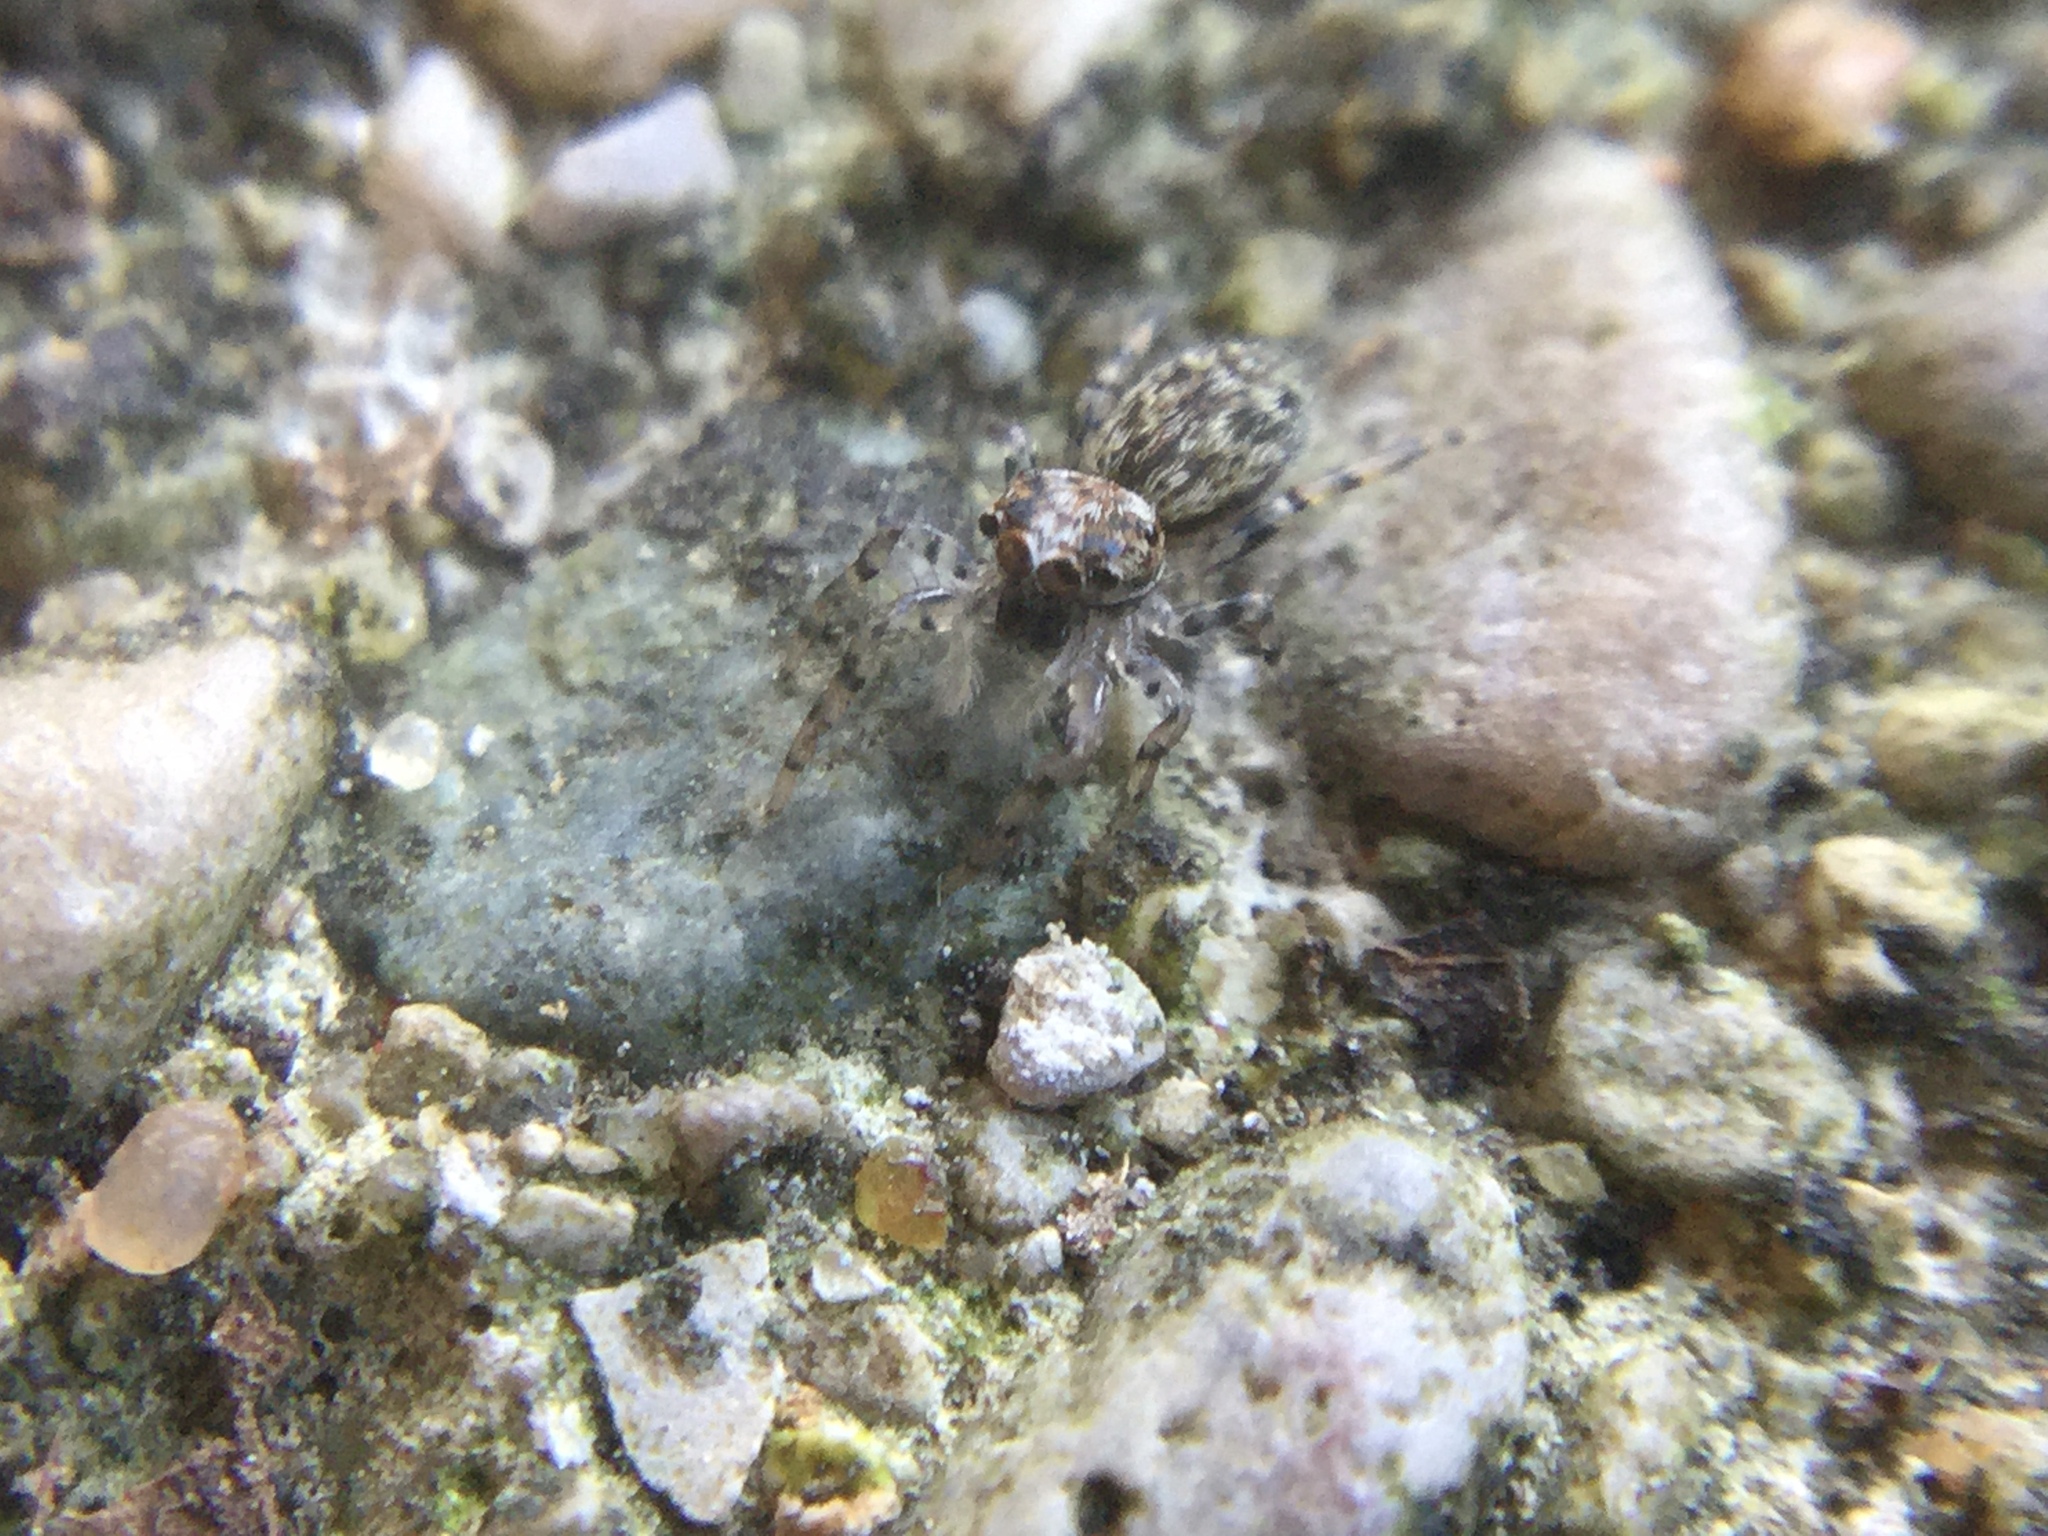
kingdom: Animalia
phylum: Arthropoda
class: Arachnida
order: Araneae
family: Salticidae
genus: Platycryptus
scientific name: Platycryptus undatus
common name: Tan jumping spider
